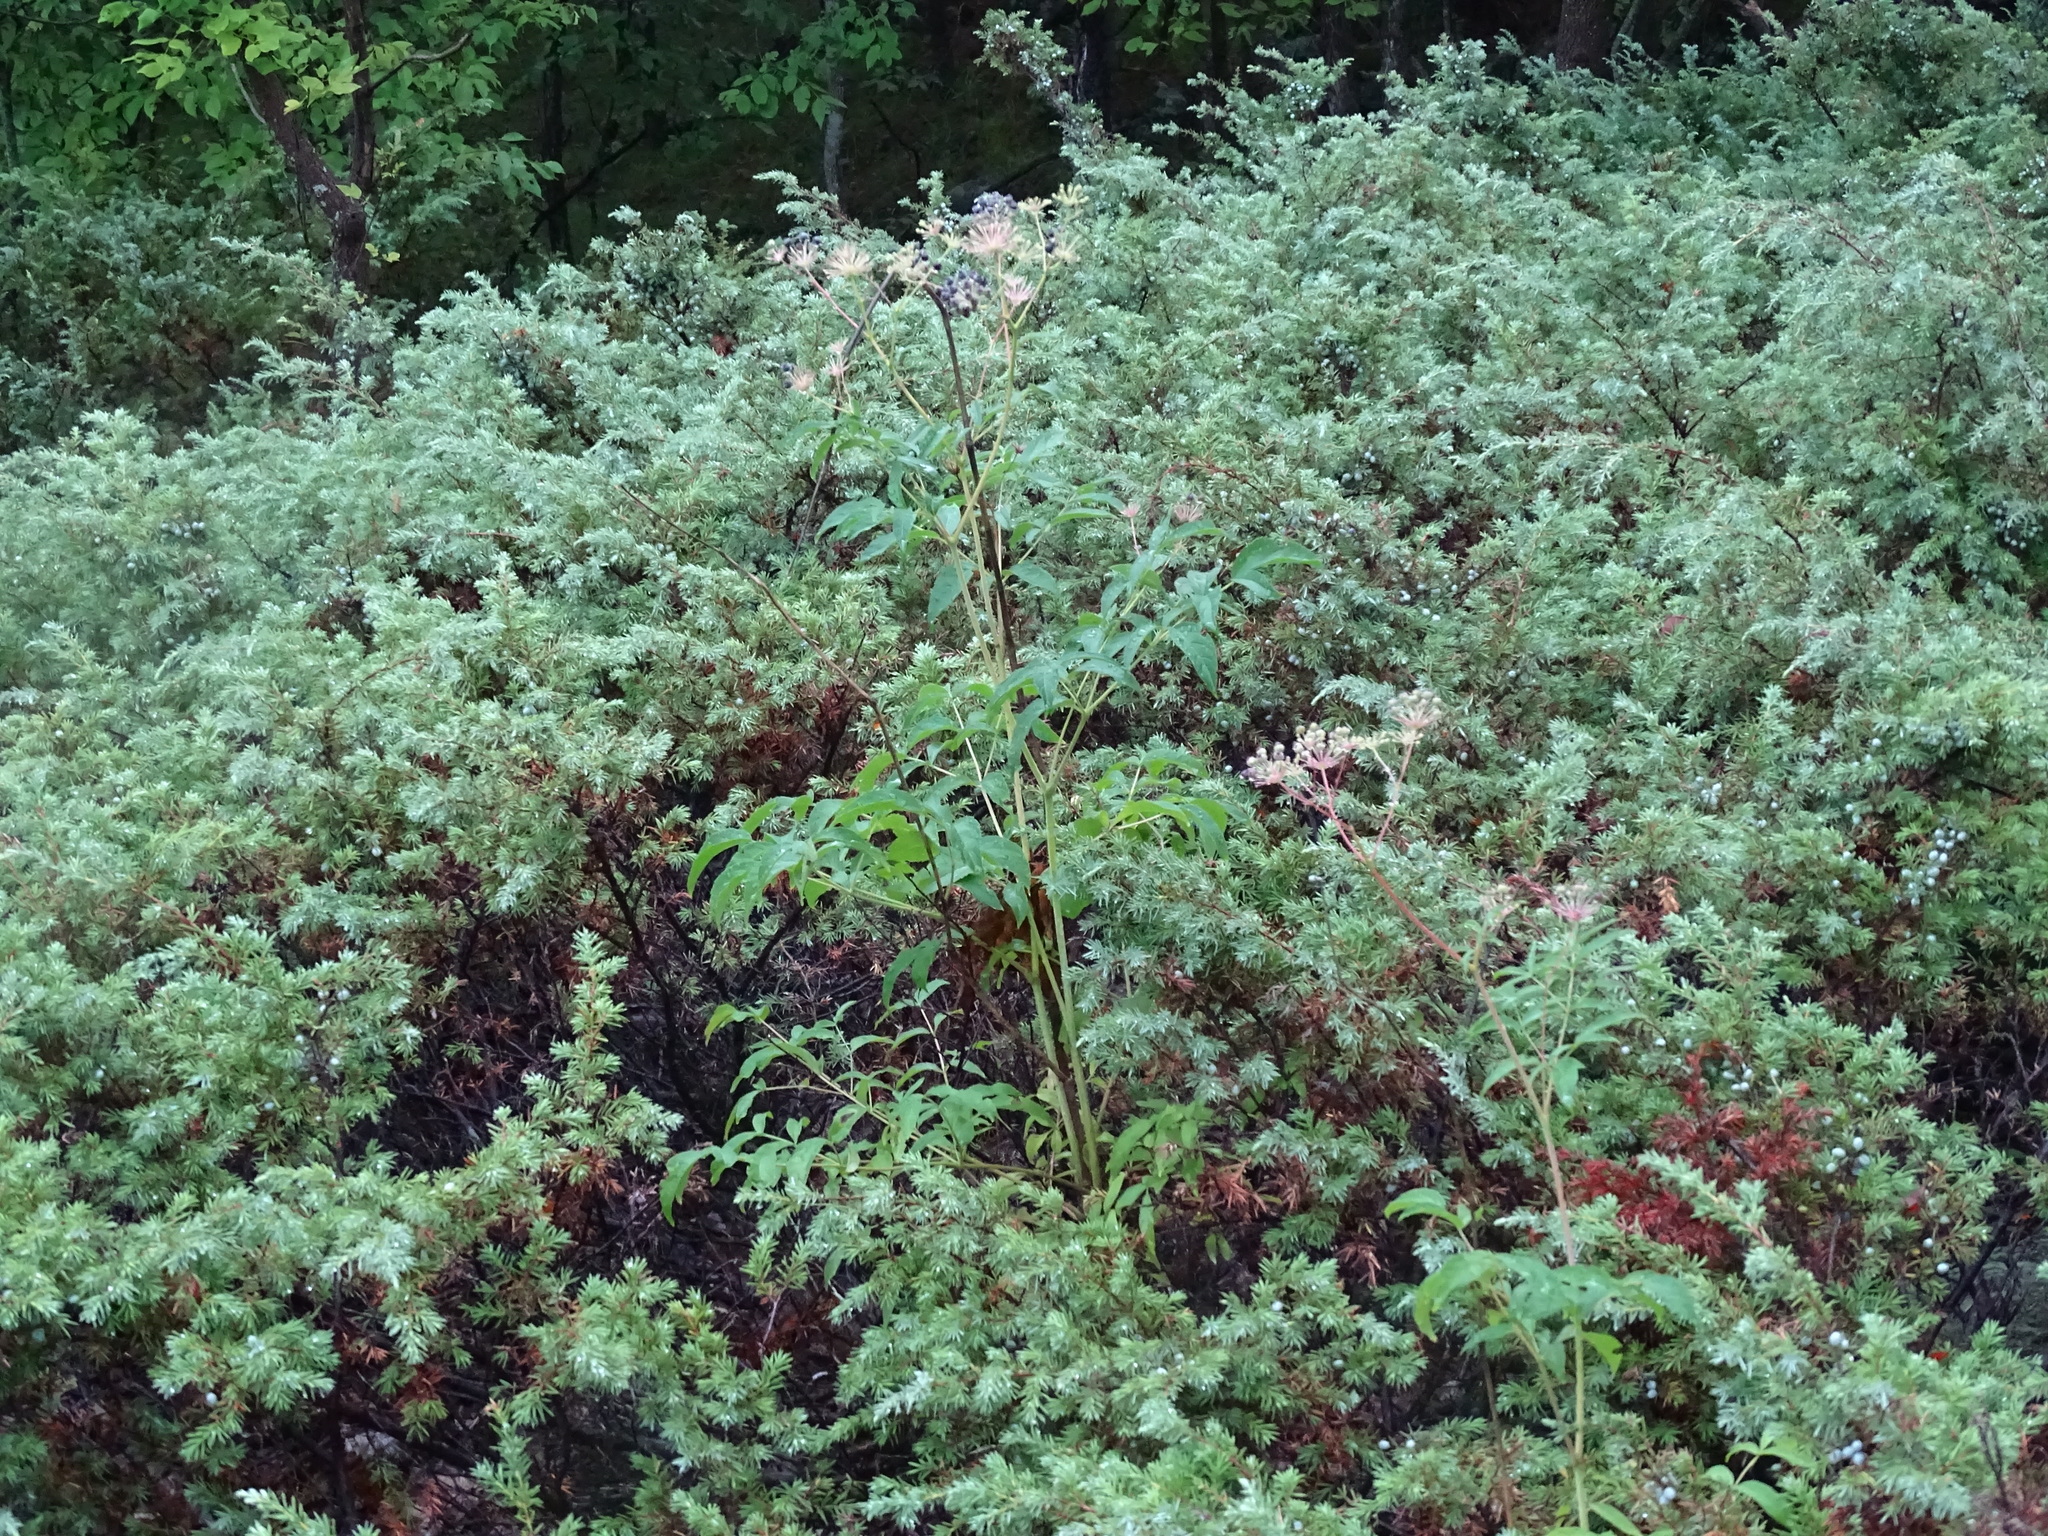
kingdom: Plantae
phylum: Tracheophyta
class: Magnoliopsida
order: Apiales
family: Araliaceae
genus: Aralia
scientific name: Aralia hispida
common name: Bristly sarsaparilla
